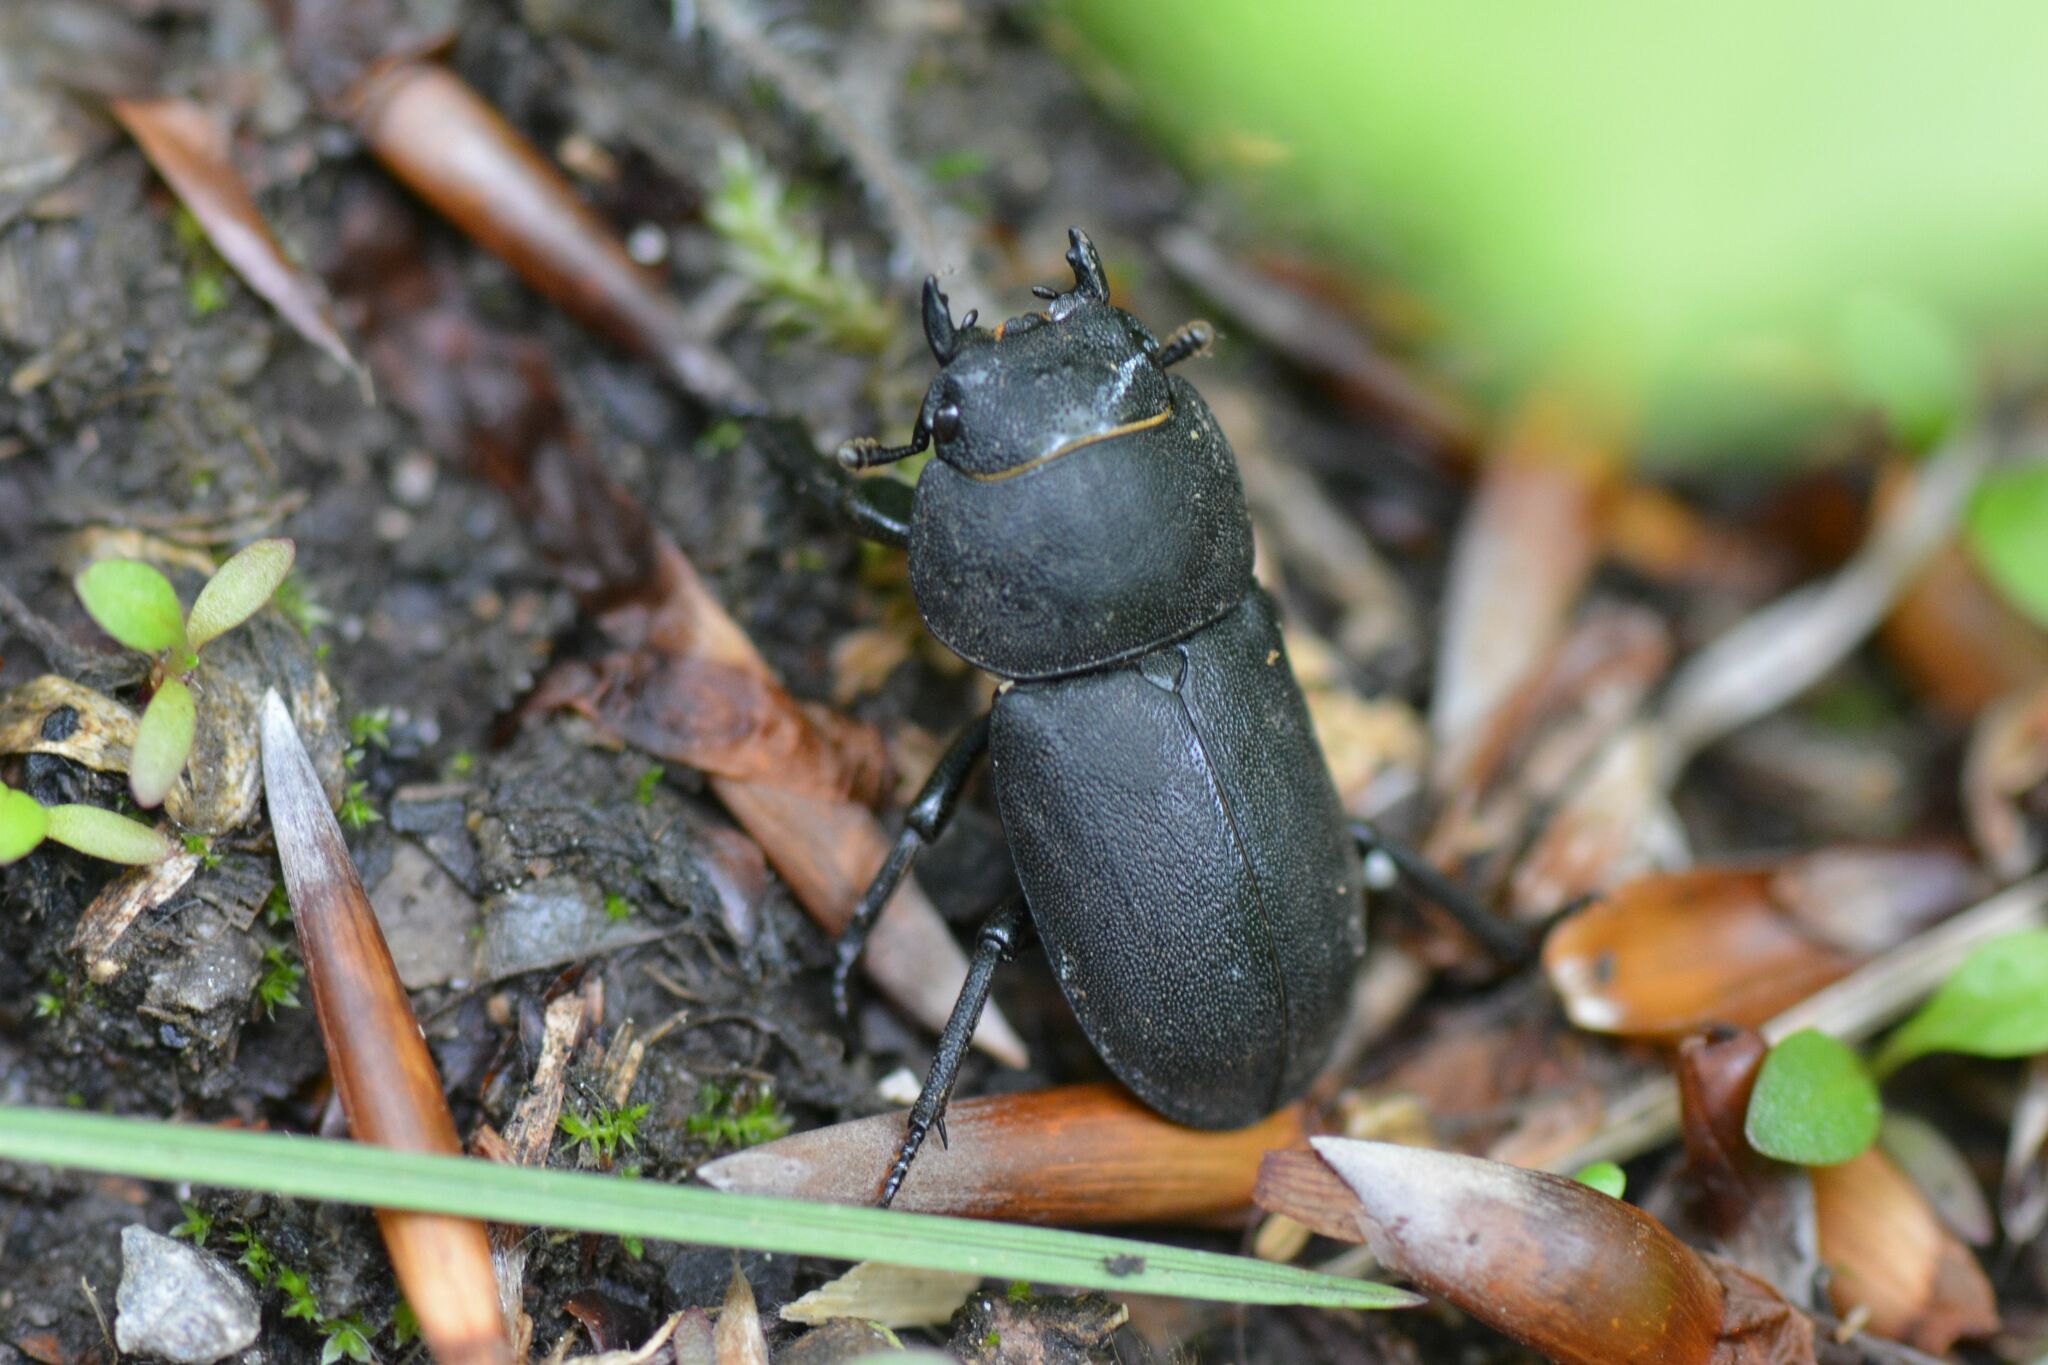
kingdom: Animalia
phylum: Arthropoda
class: Insecta
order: Coleoptera
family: Lucanidae
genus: Dorcus
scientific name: Dorcus parallelipipedus
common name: Lesser stag beetle
